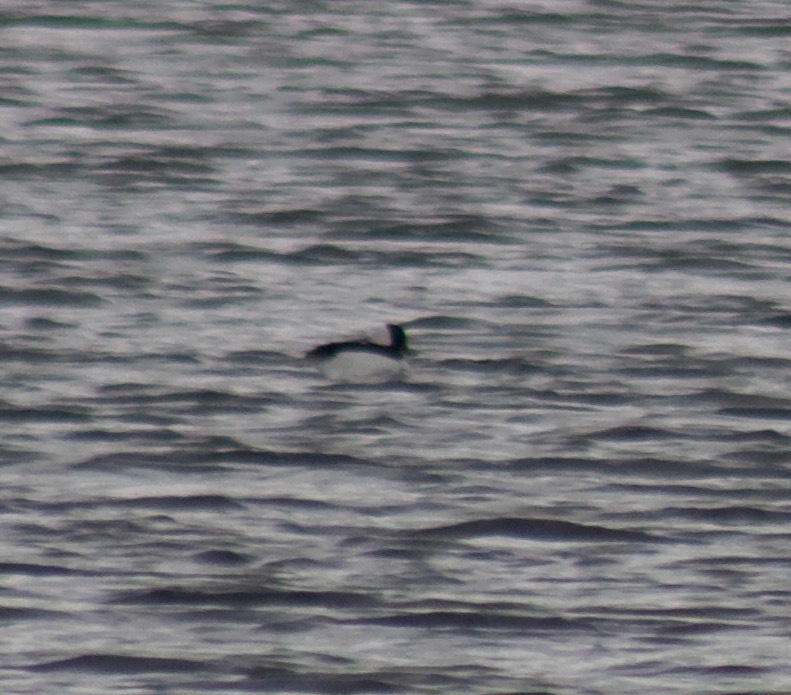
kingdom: Animalia
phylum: Chordata
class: Aves
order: Anseriformes
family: Anatidae
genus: Bucephala
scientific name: Bucephala albeola
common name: Bufflehead
